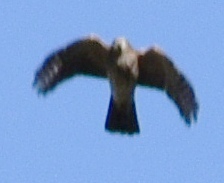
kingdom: Animalia
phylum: Chordata
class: Aves
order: Accipitriformes
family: Accipitridae
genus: Accipiter
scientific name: Accipiter cooperii
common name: Cooper's hawk
